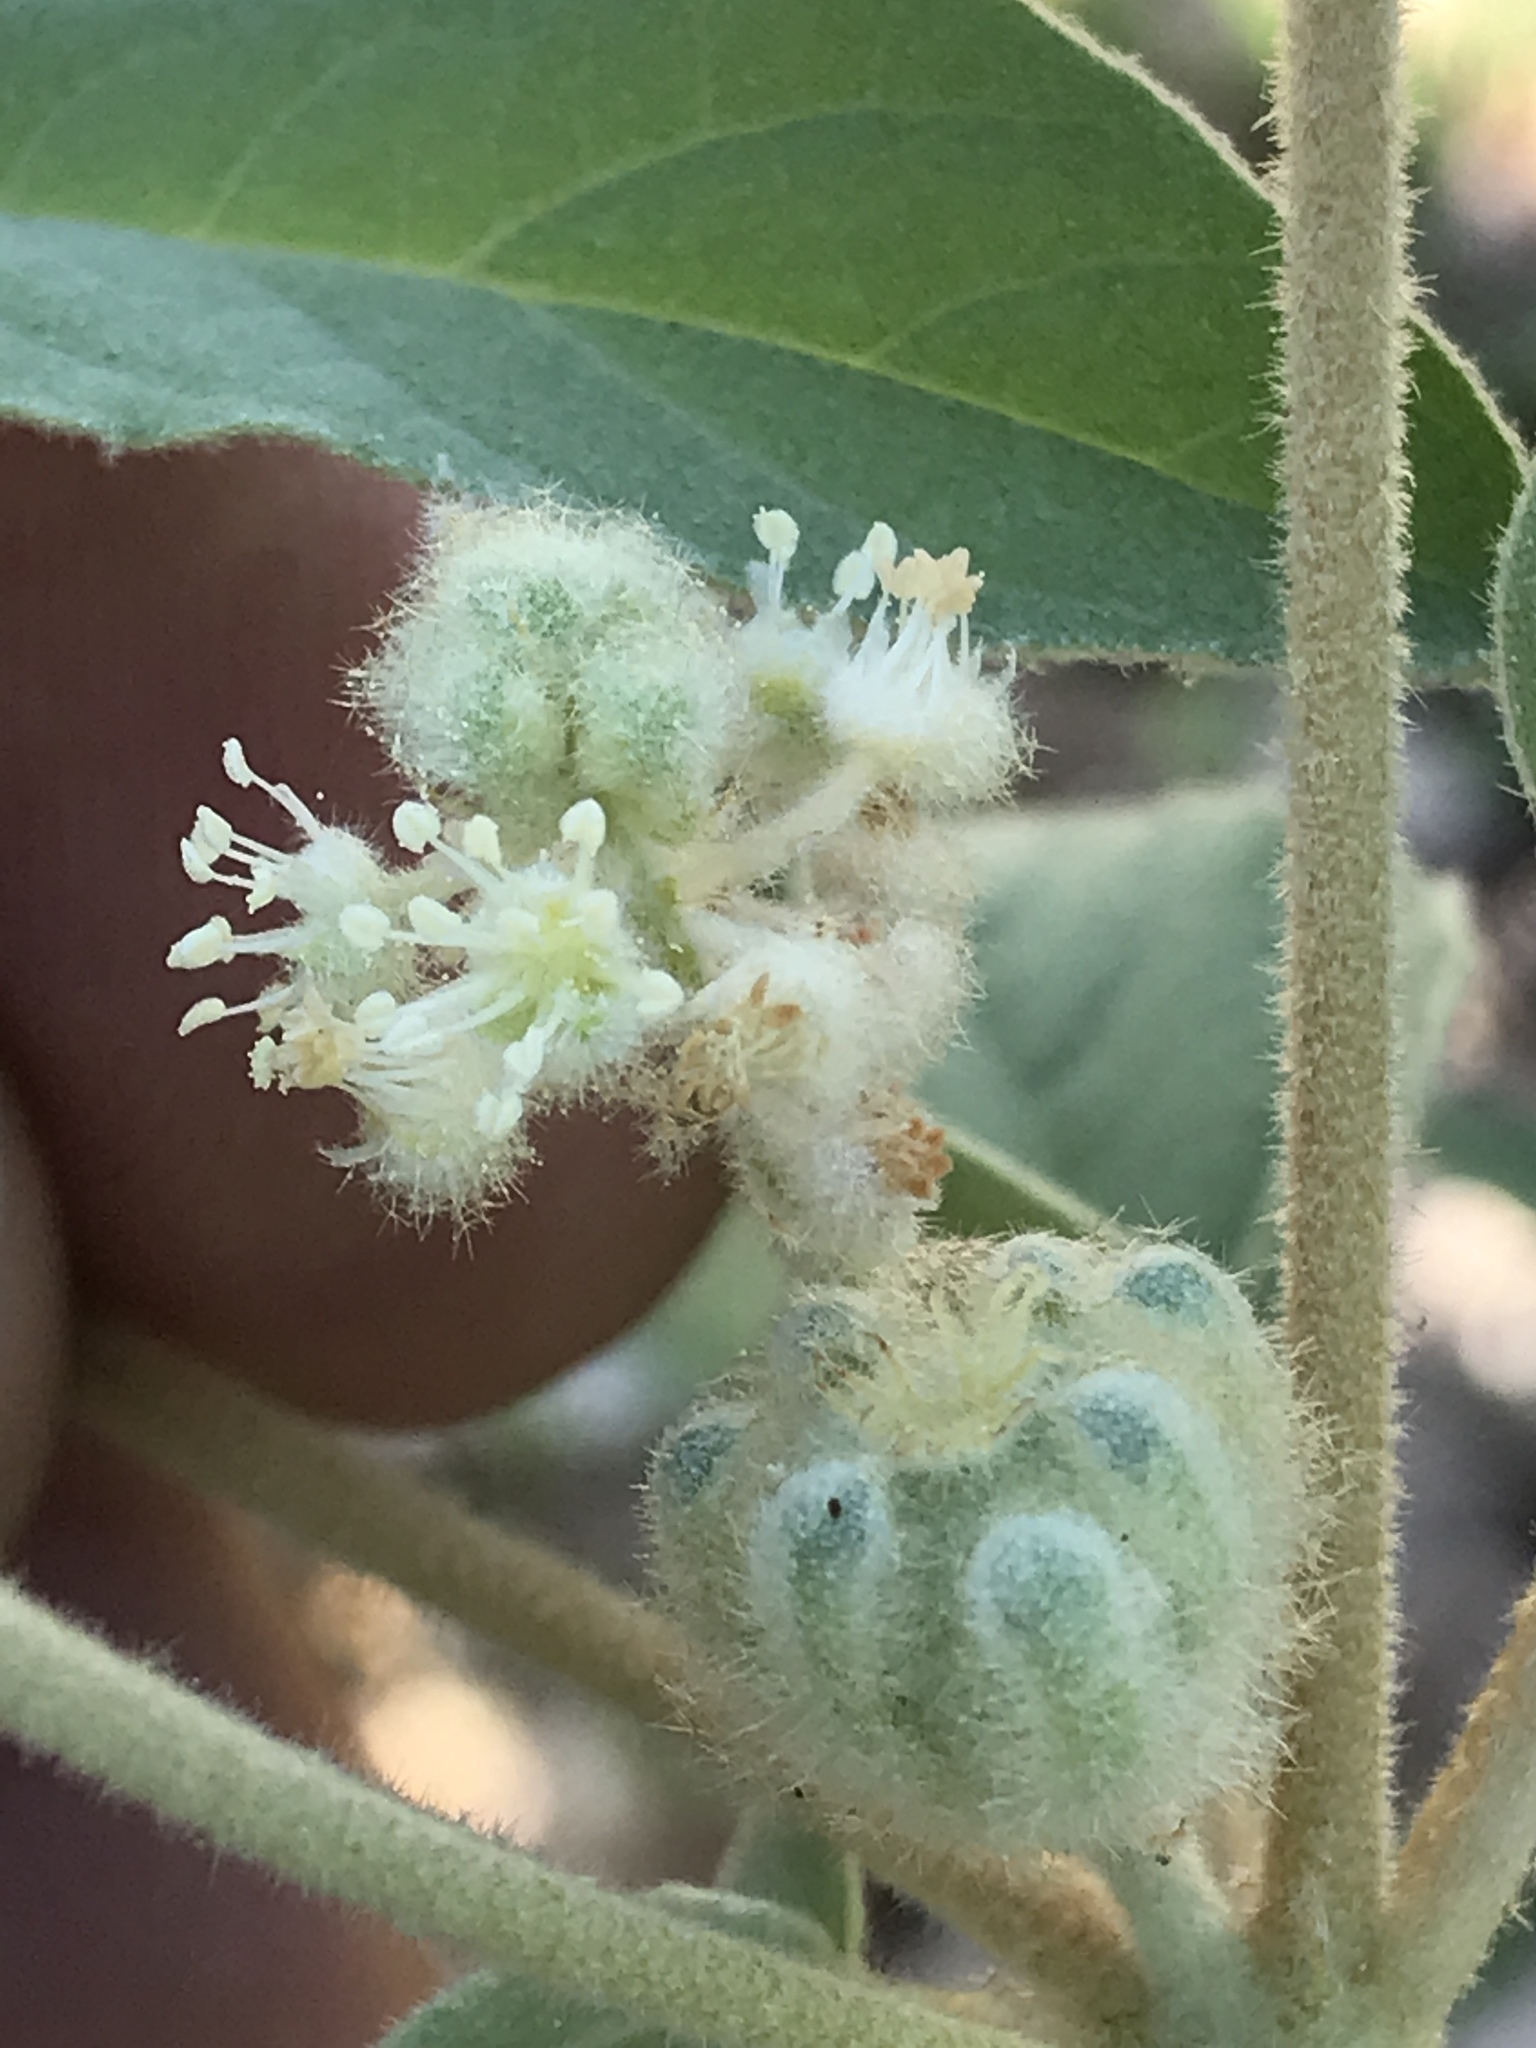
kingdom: Plantae
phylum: Tracheophyta
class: Magnoliopsida
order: Malpighiales
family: Euphorbiaceae
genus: Croton
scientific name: Croton lindheimeri
